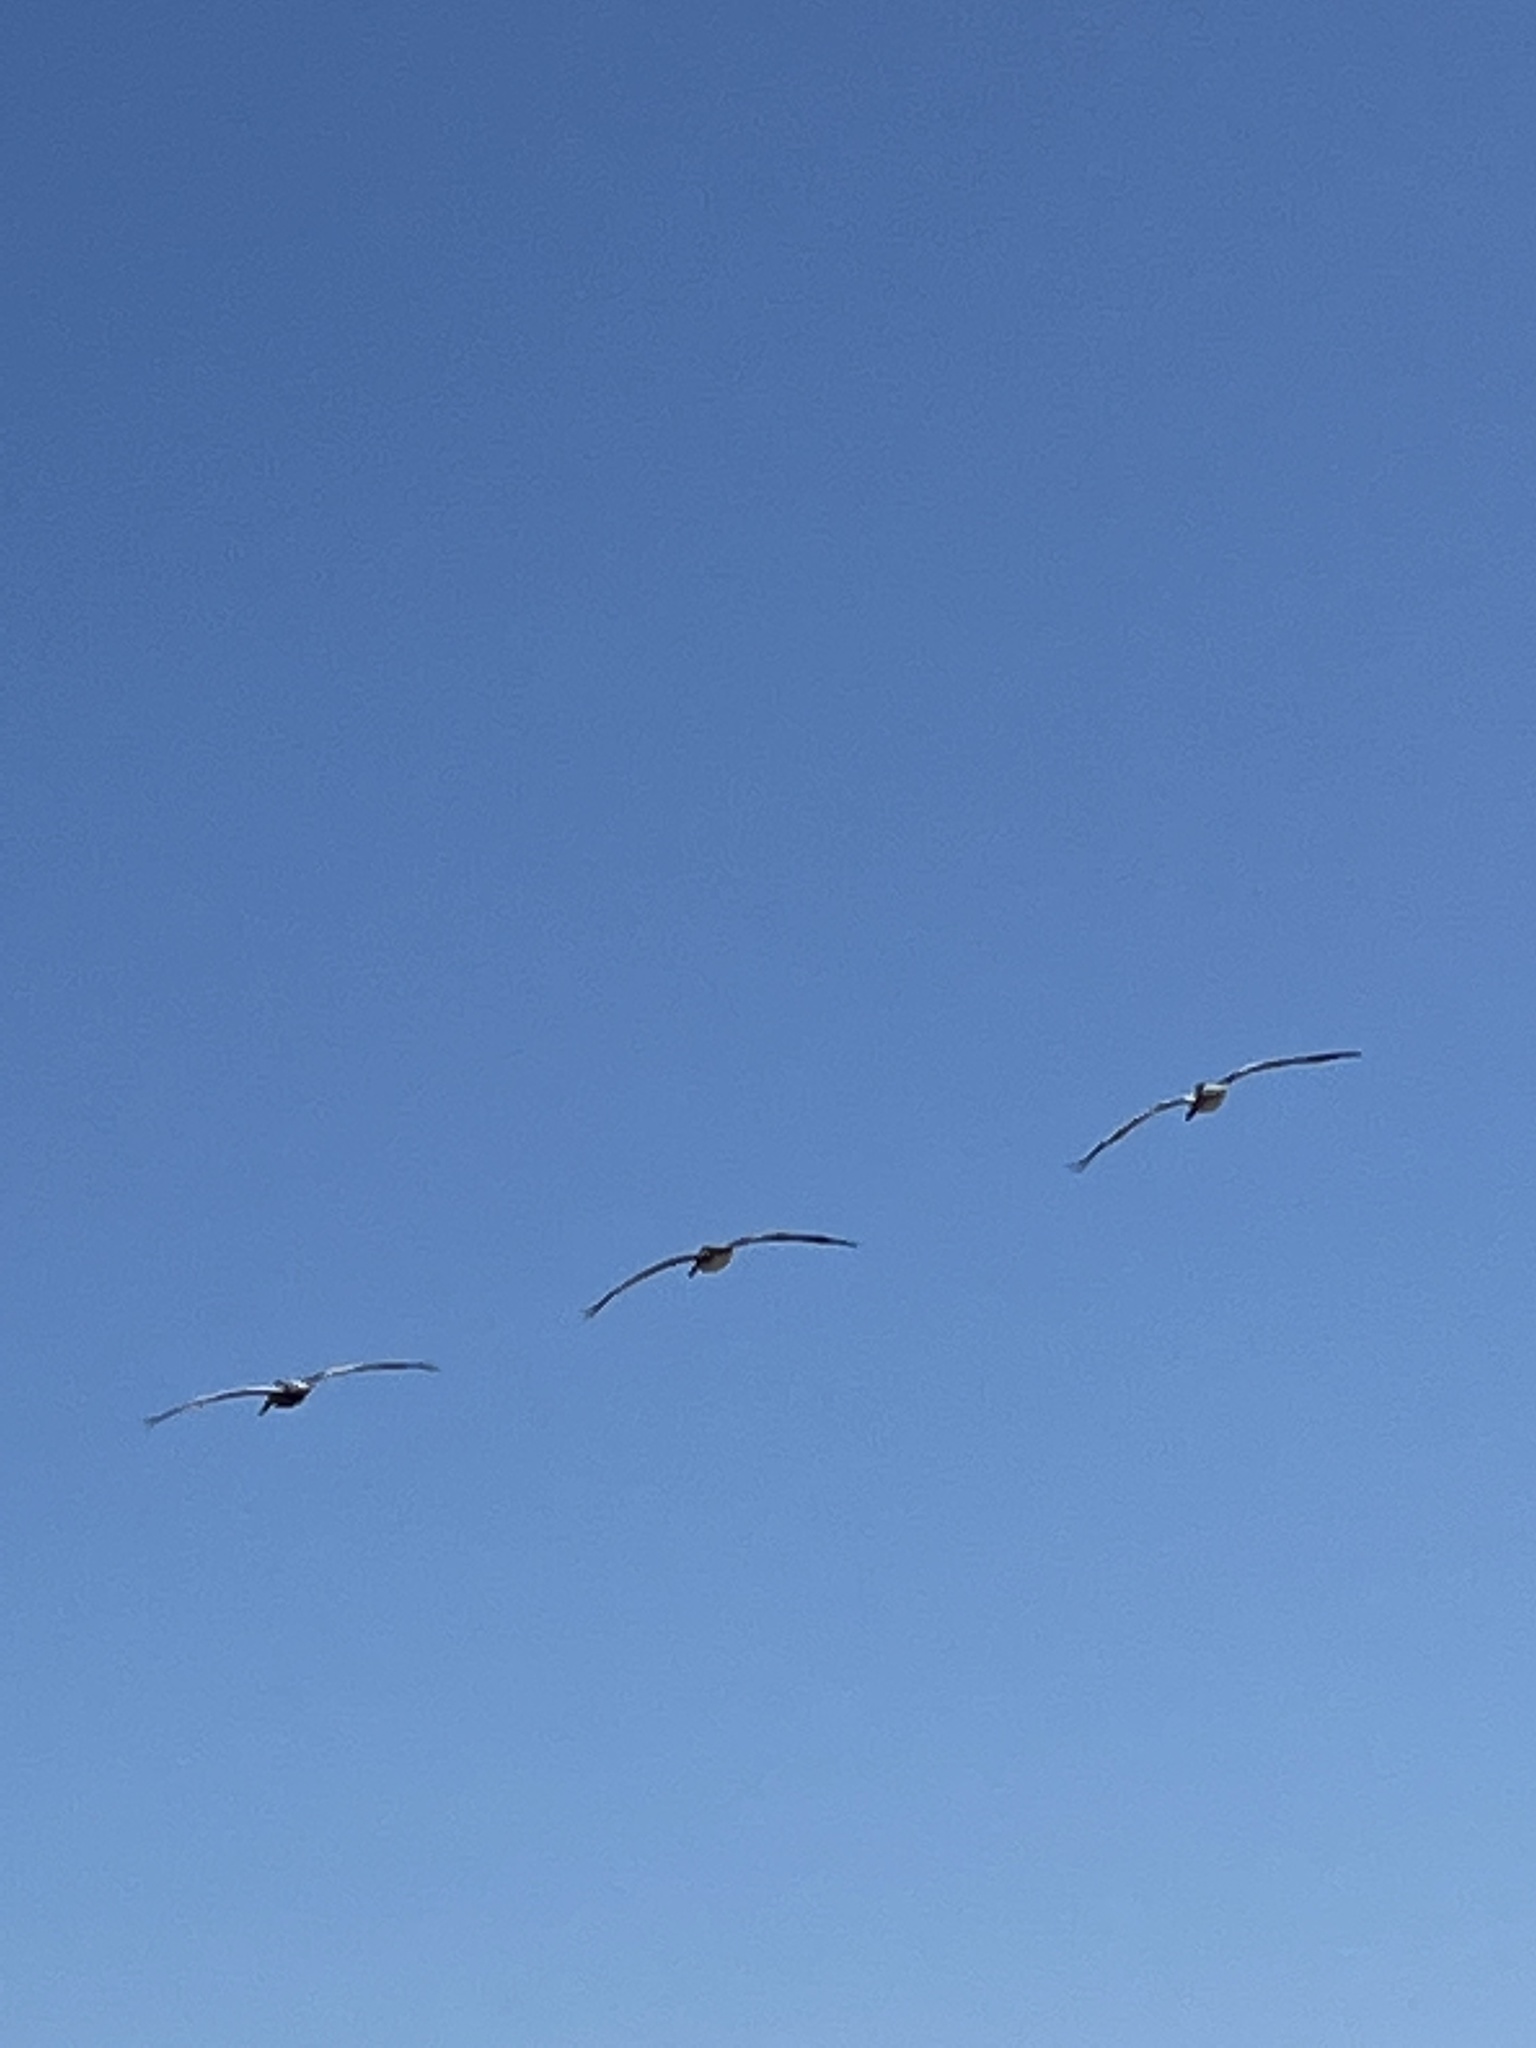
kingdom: Animalia
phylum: Chordata
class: Aves
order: Pelecaniformes
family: Pelecanidae
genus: Pelecanus
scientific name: Pelecanus occidentalis
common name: Brown pelican
